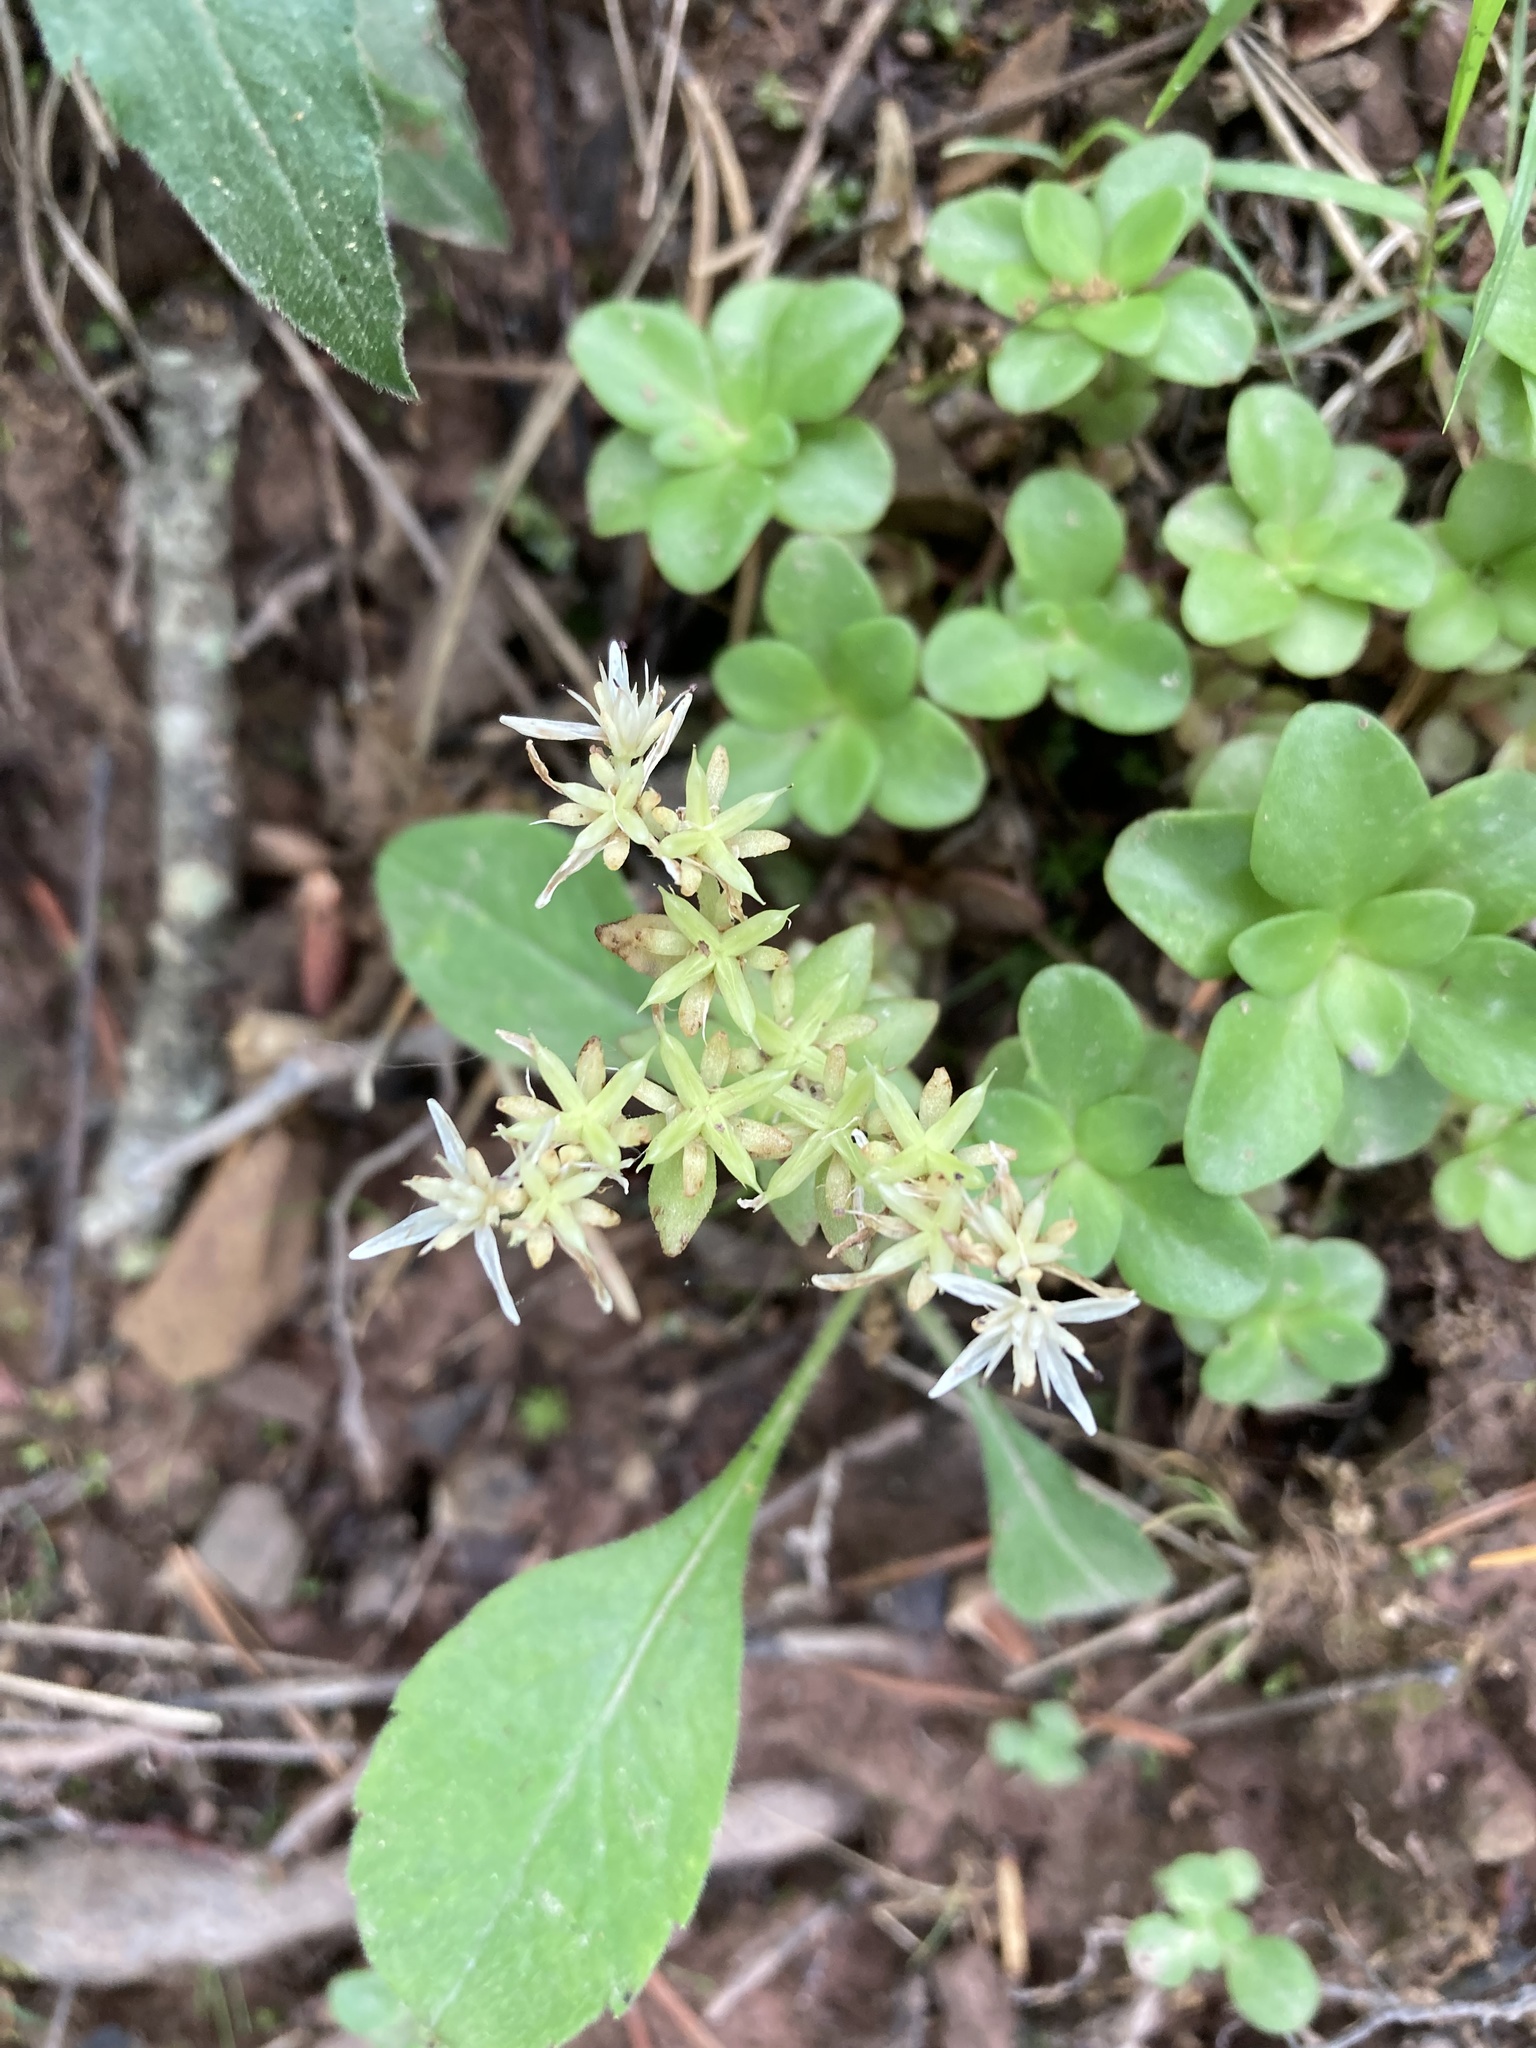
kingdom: Plantae
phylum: Tracheophyta
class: Magnoliopsida
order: Saxifragales
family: Crassulaceae
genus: Sedum
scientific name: Sedum ternatum
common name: Wild stonecrop
